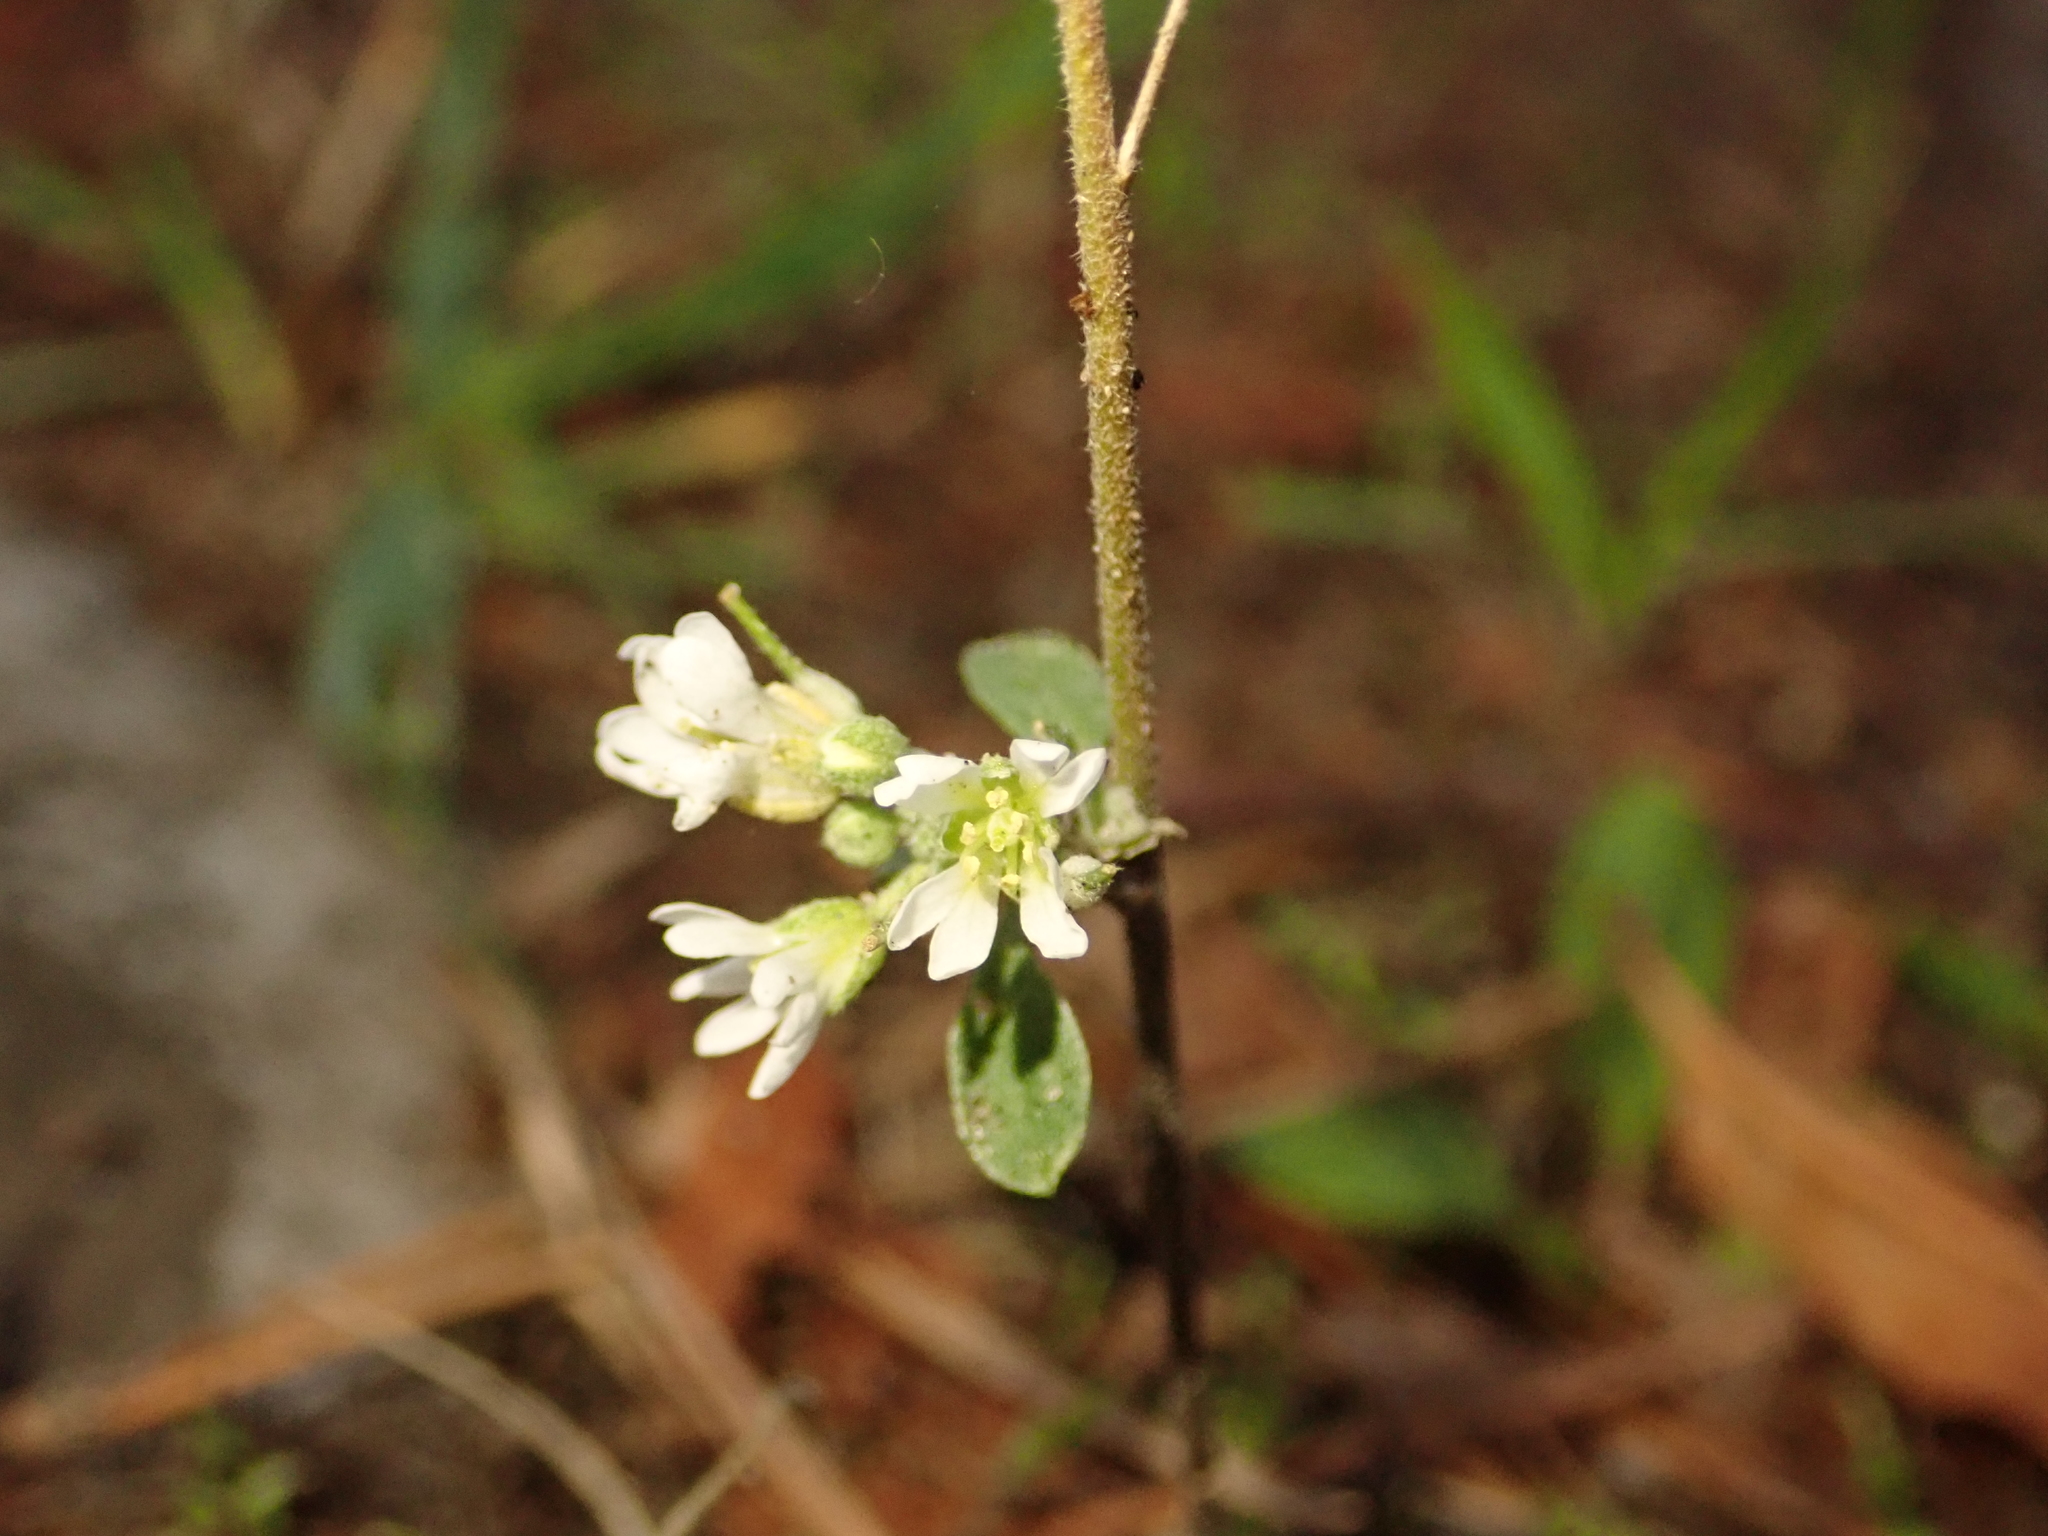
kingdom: Plantae
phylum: Tracheophyta
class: Magnoliopsida
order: Brassicales
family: Brassicaceae
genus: Berteroa
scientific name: Berteroa incana
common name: Hoary alison
